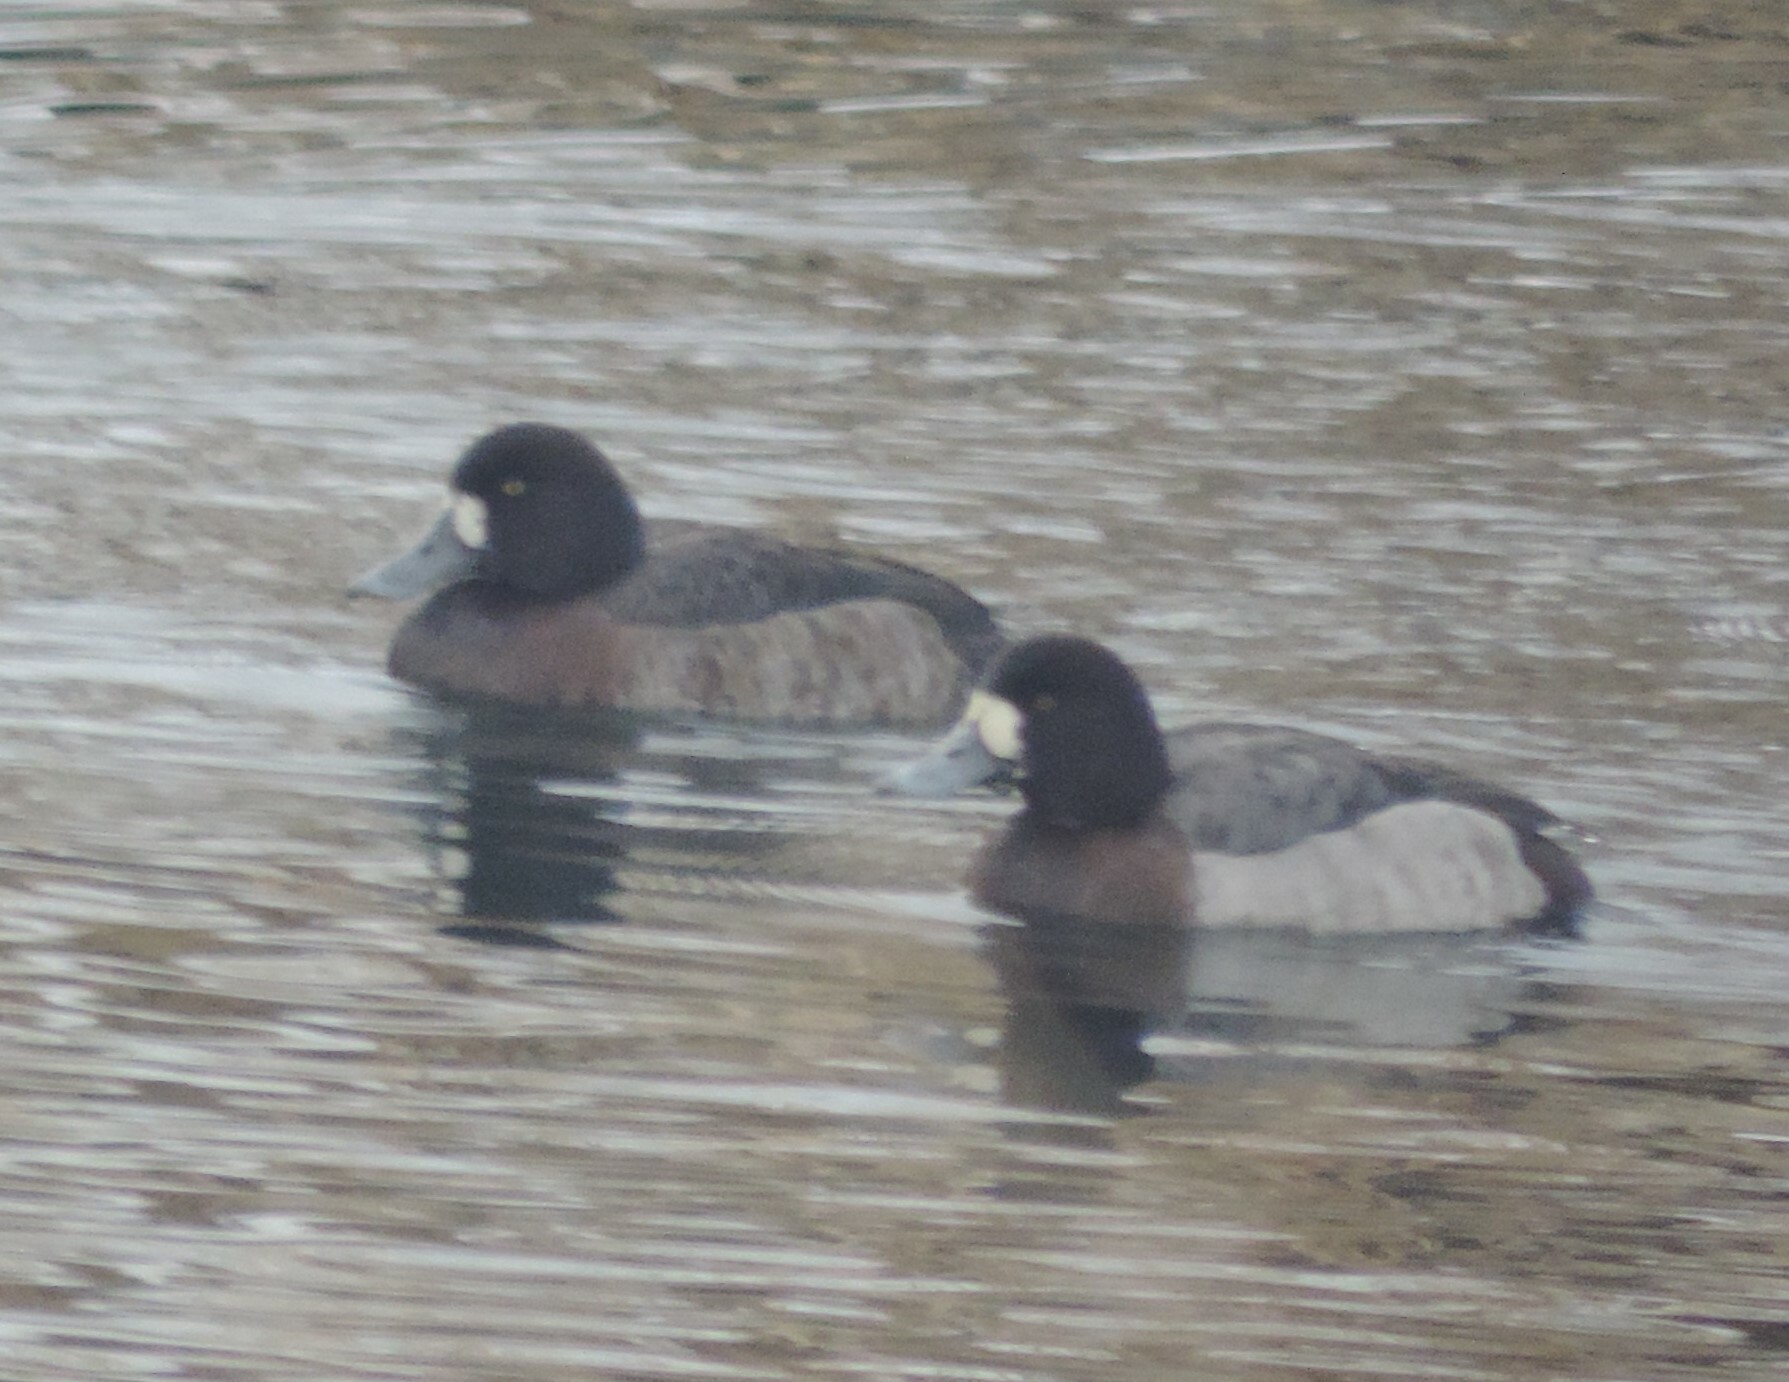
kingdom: Animalia
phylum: Chordata
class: Aves
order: Anseriformes
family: Anatidae
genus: Aythya
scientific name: Aythya marila
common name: Greater scaup
